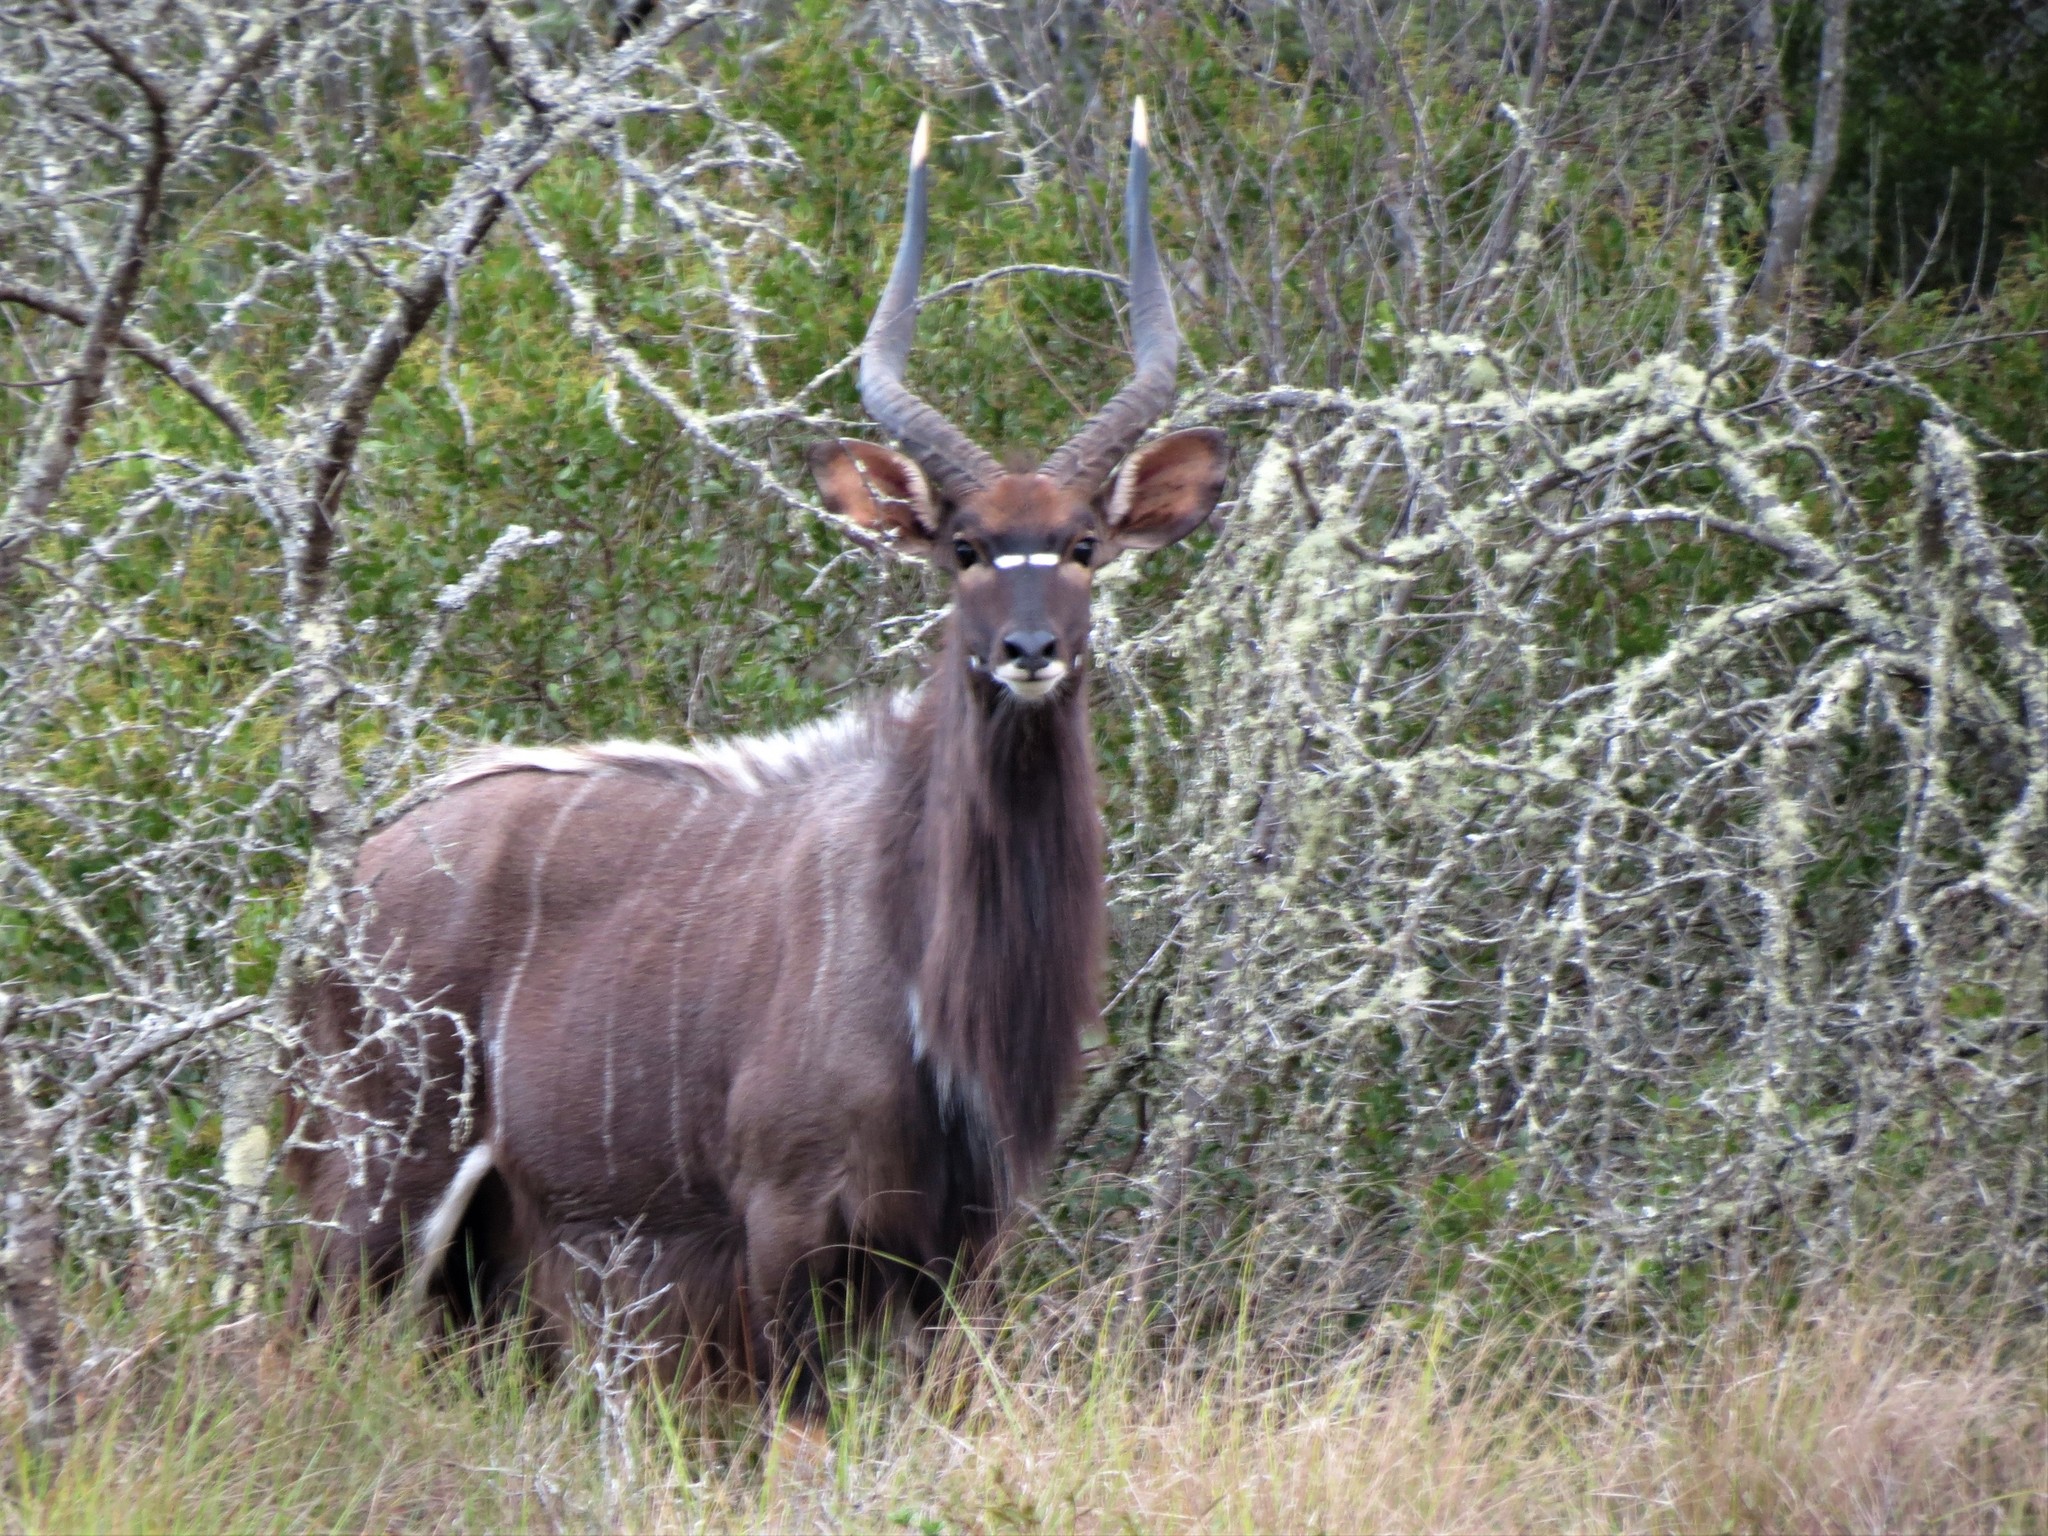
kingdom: Animalia
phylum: Chordata
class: Mammalia
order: Artiodactyla
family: Bovidae
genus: Tragelaphus
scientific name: Tragelaphus angasii
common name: Nyala
